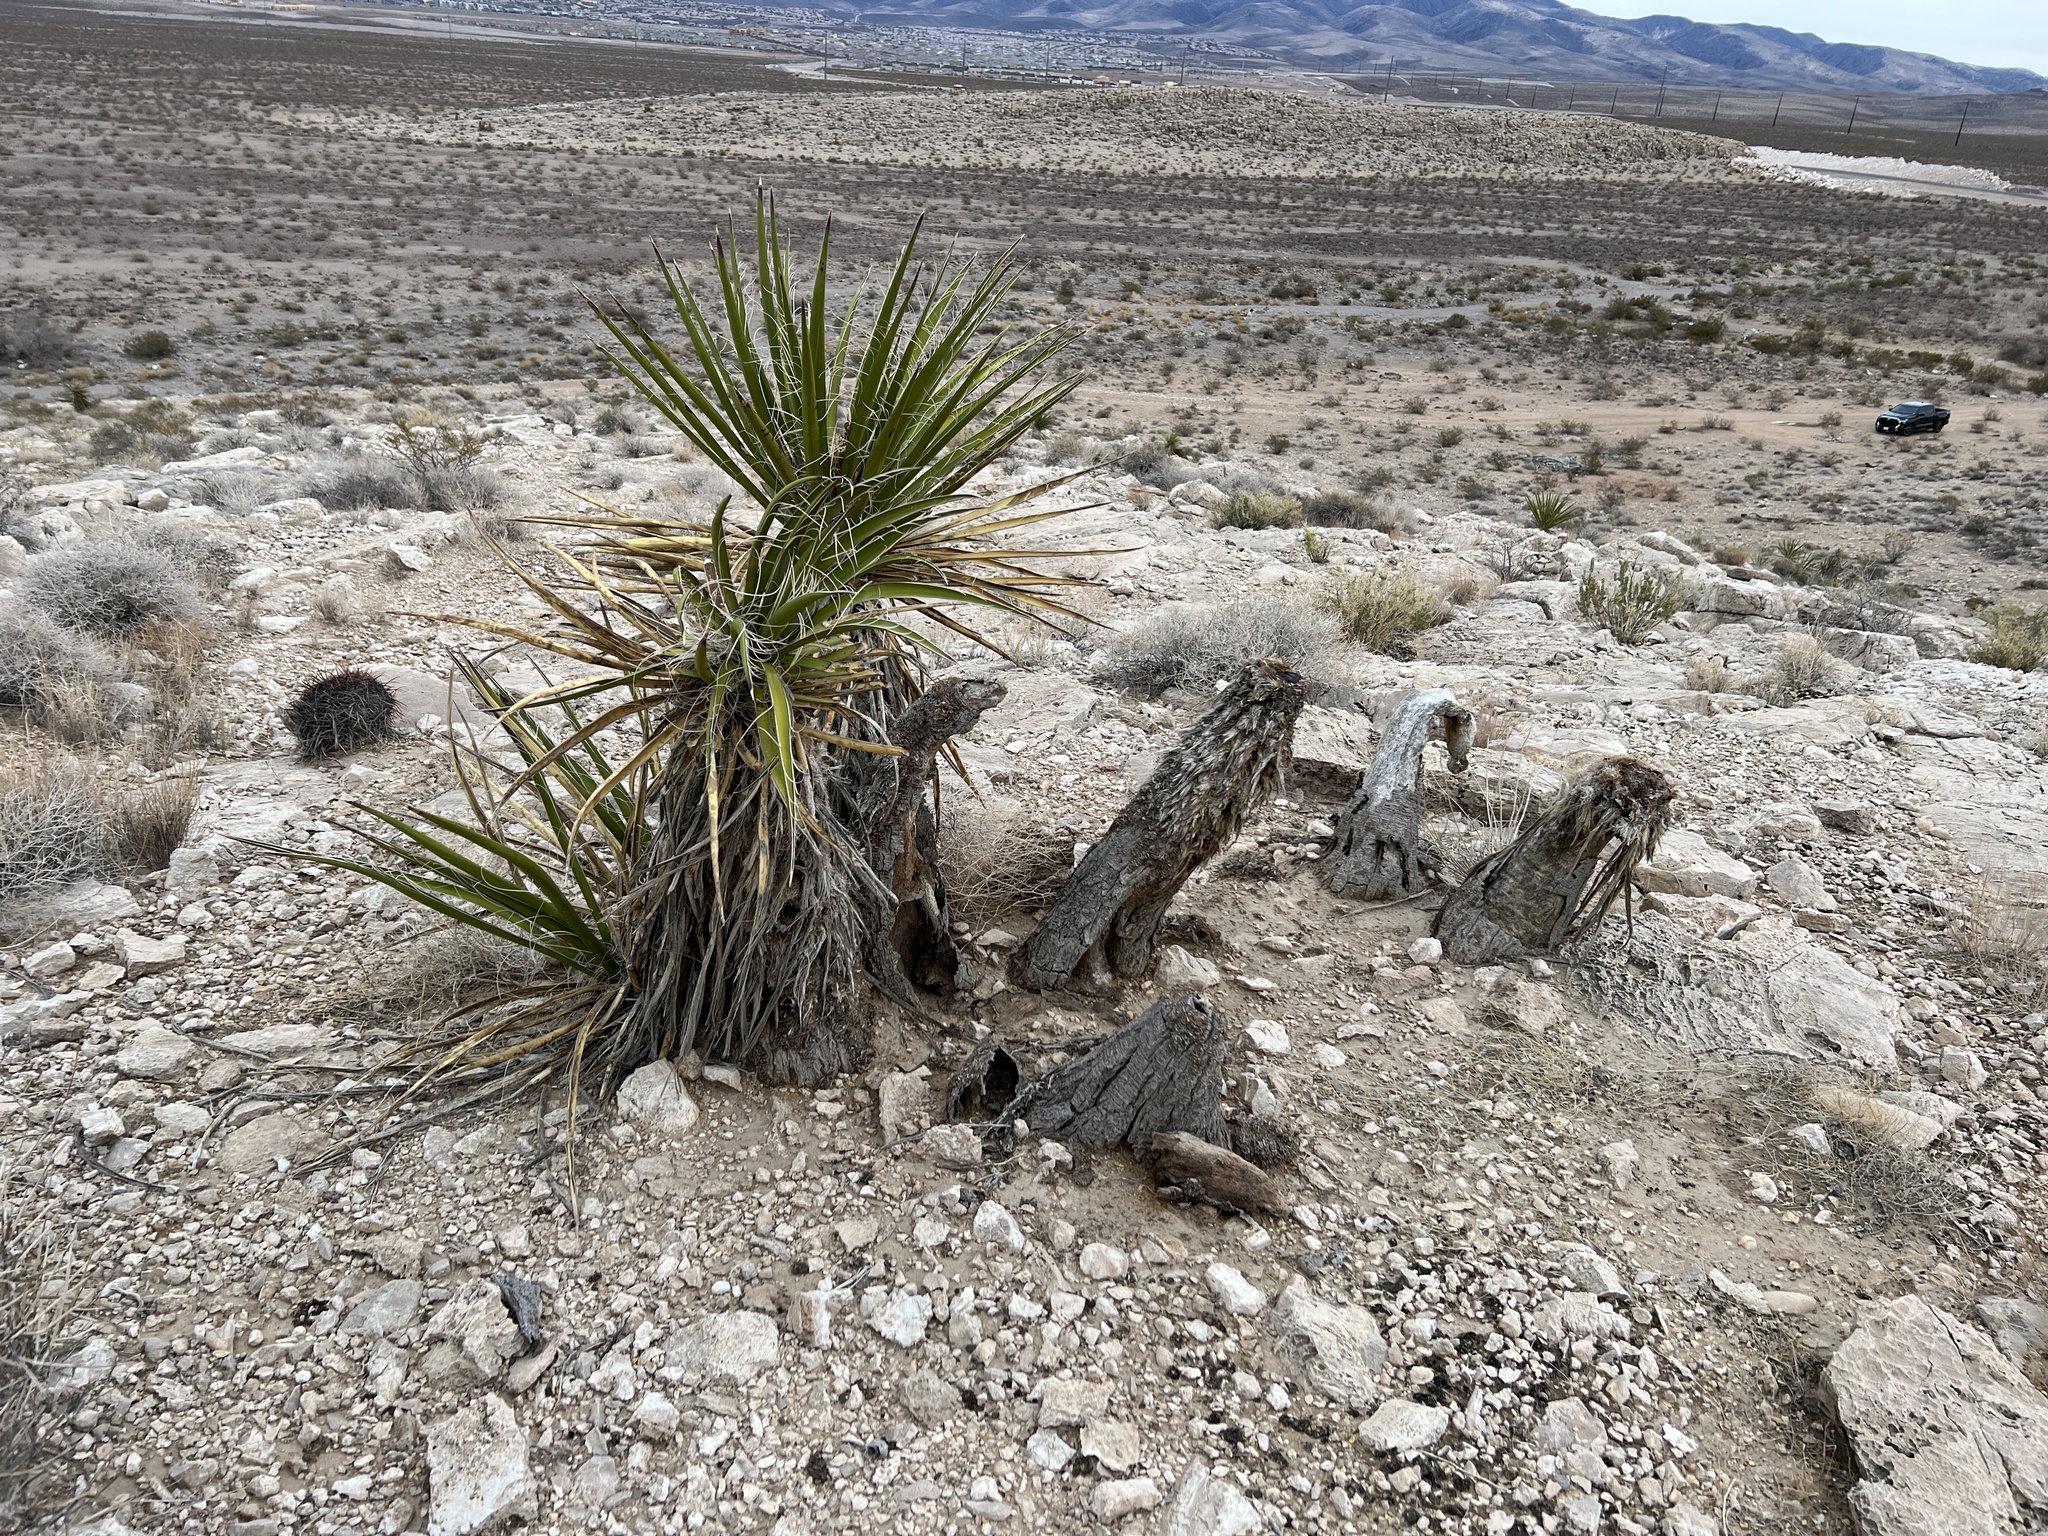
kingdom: Plantae
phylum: Tracheophyta
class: Liliopsida
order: Asparagales
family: Asparagaceae
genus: Yucca
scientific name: Yucca schidigera
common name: Mojave yucca
